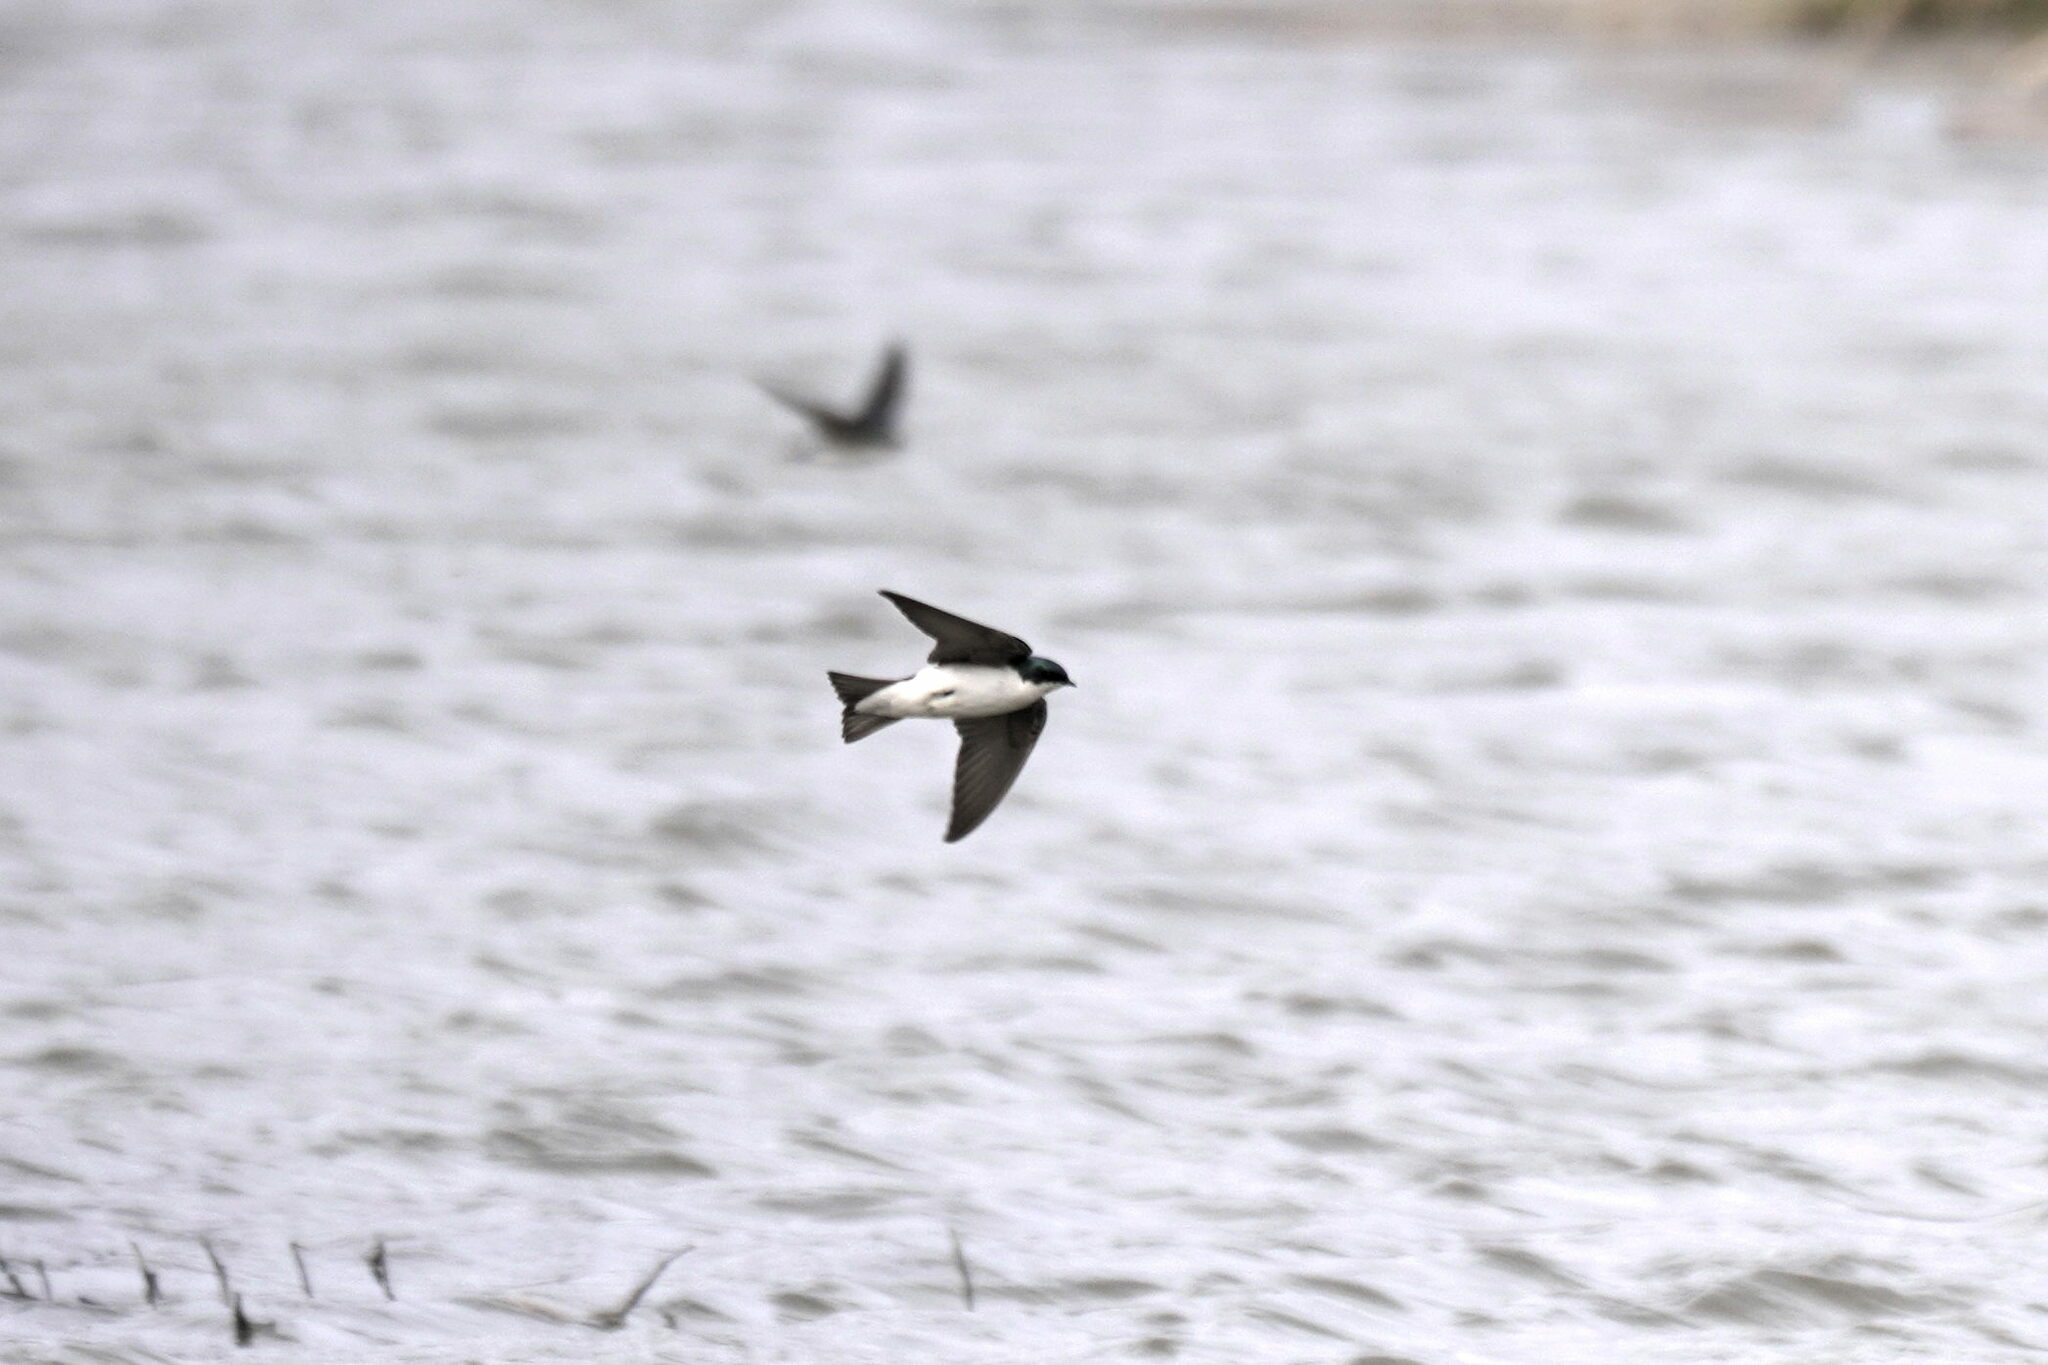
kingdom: Animalia
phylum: Chordata
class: Aves
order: Passeriformes
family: Hirundinidae
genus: Tachycineta
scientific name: Tachycineta bicolor
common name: Tree swallow
